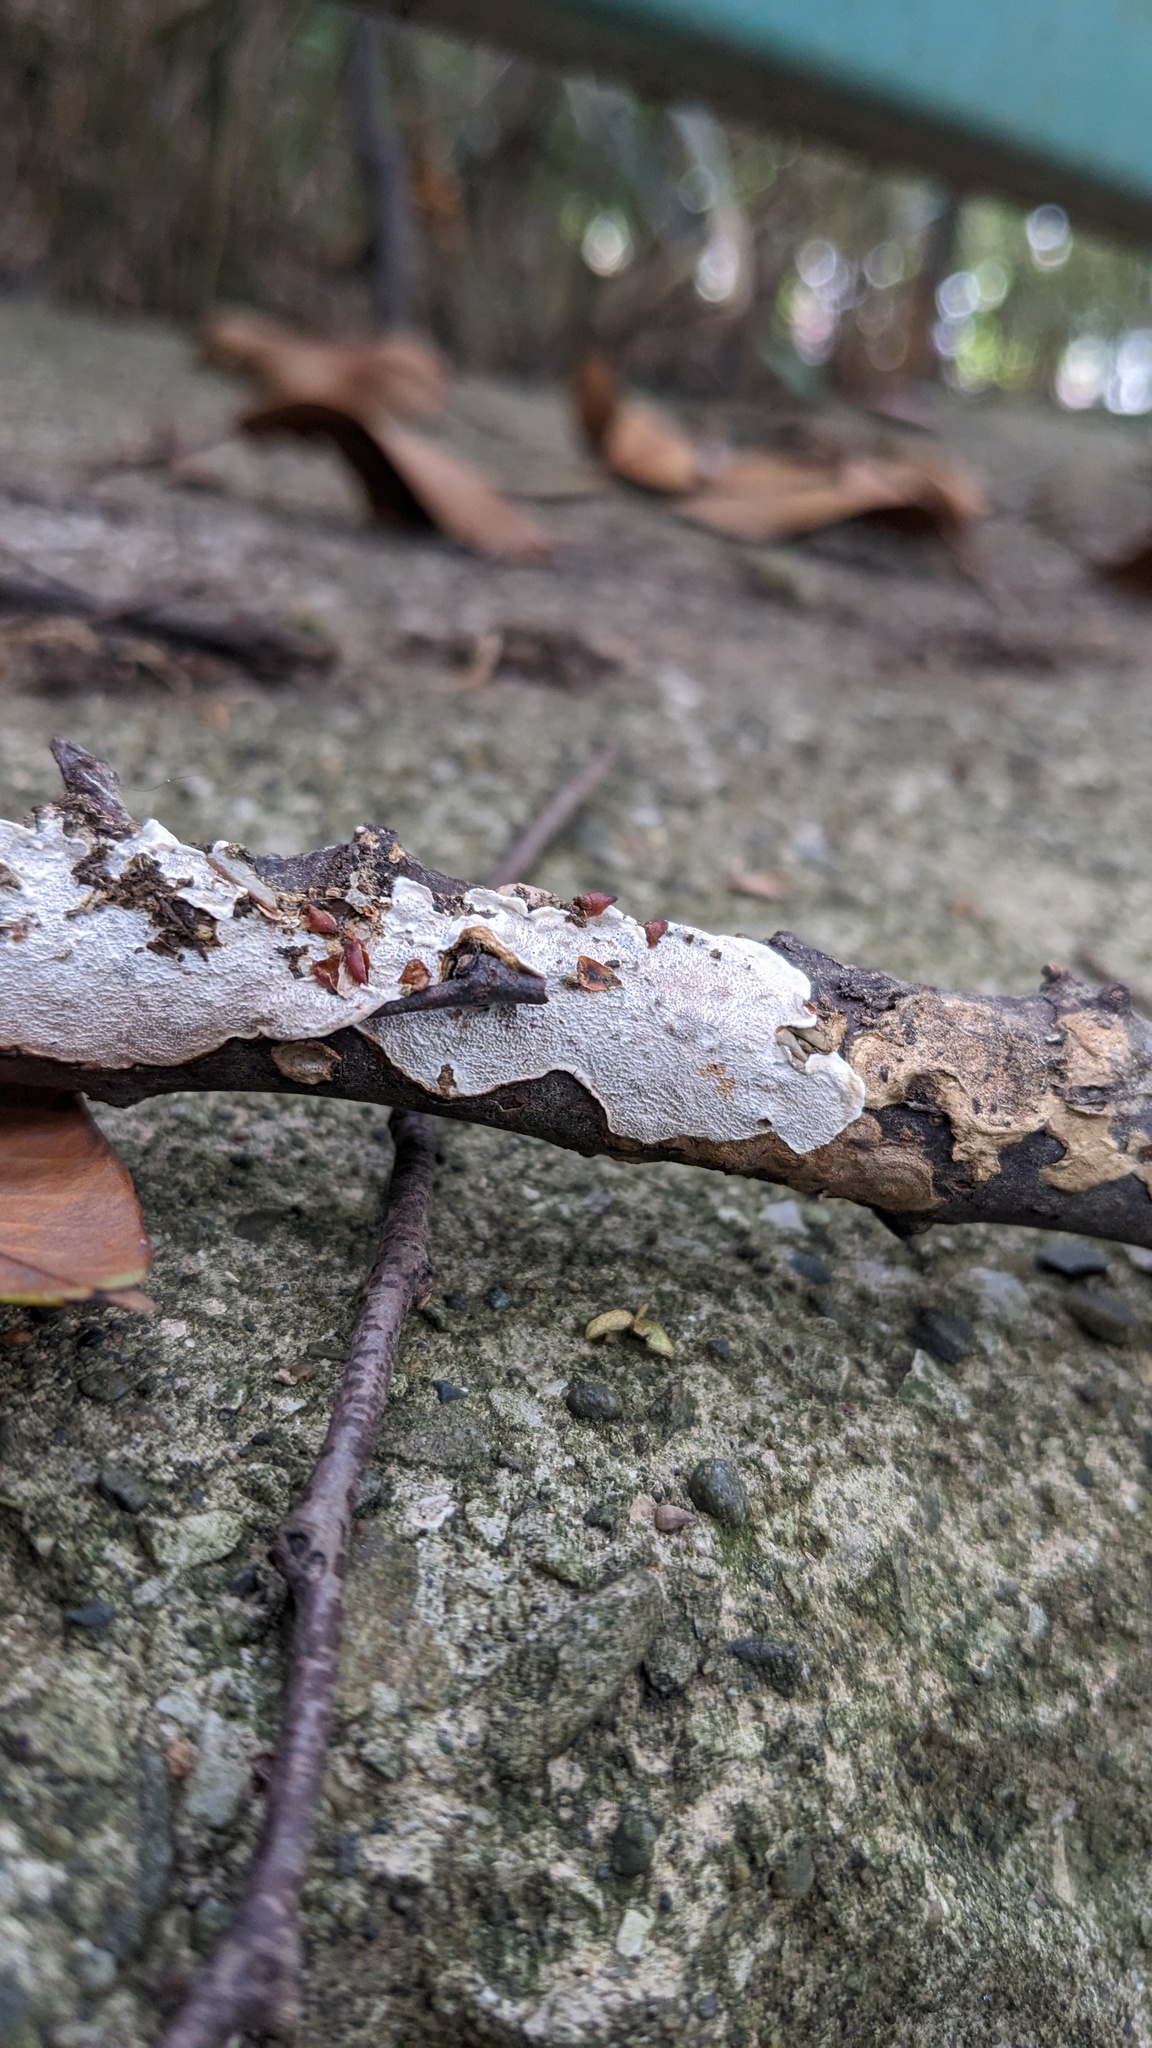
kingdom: Fungi
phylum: Basidiomycota
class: Agaricomycetes
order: Auriculariales
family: Auriculariaceae
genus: Heterochaete
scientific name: Heterochaete delicata
